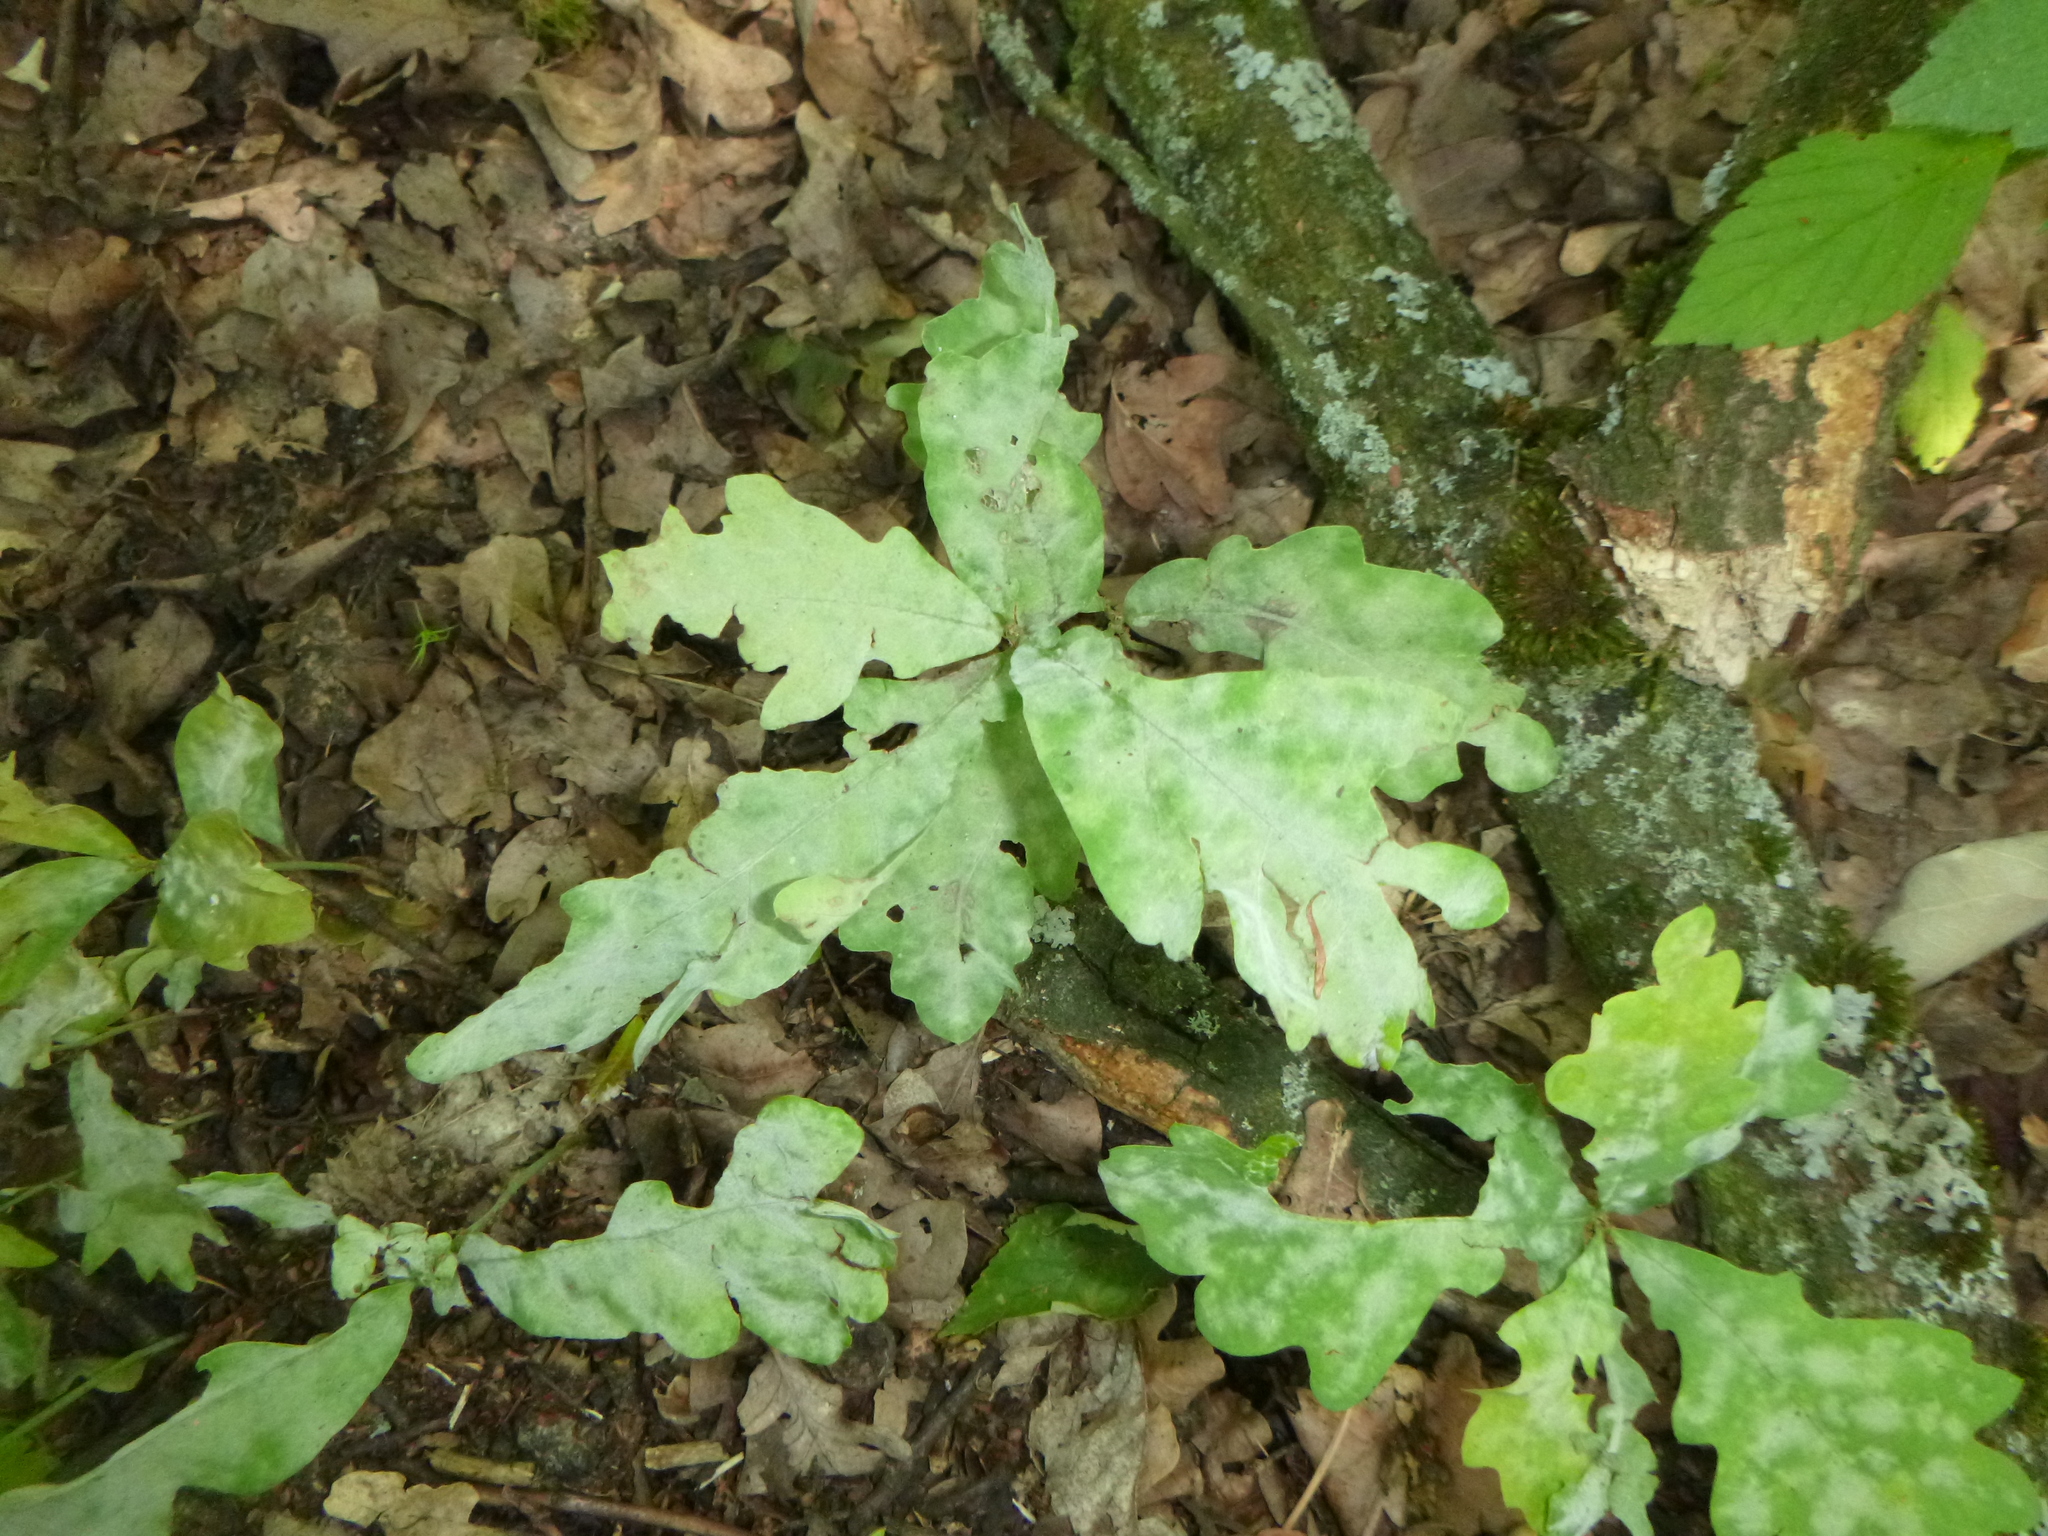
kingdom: Plantae
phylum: Tracheophyta
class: Magnoliopsida
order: Fagales
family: Fagaceae
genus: Quercus
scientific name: Quercus robur
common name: Pedunculate oak
